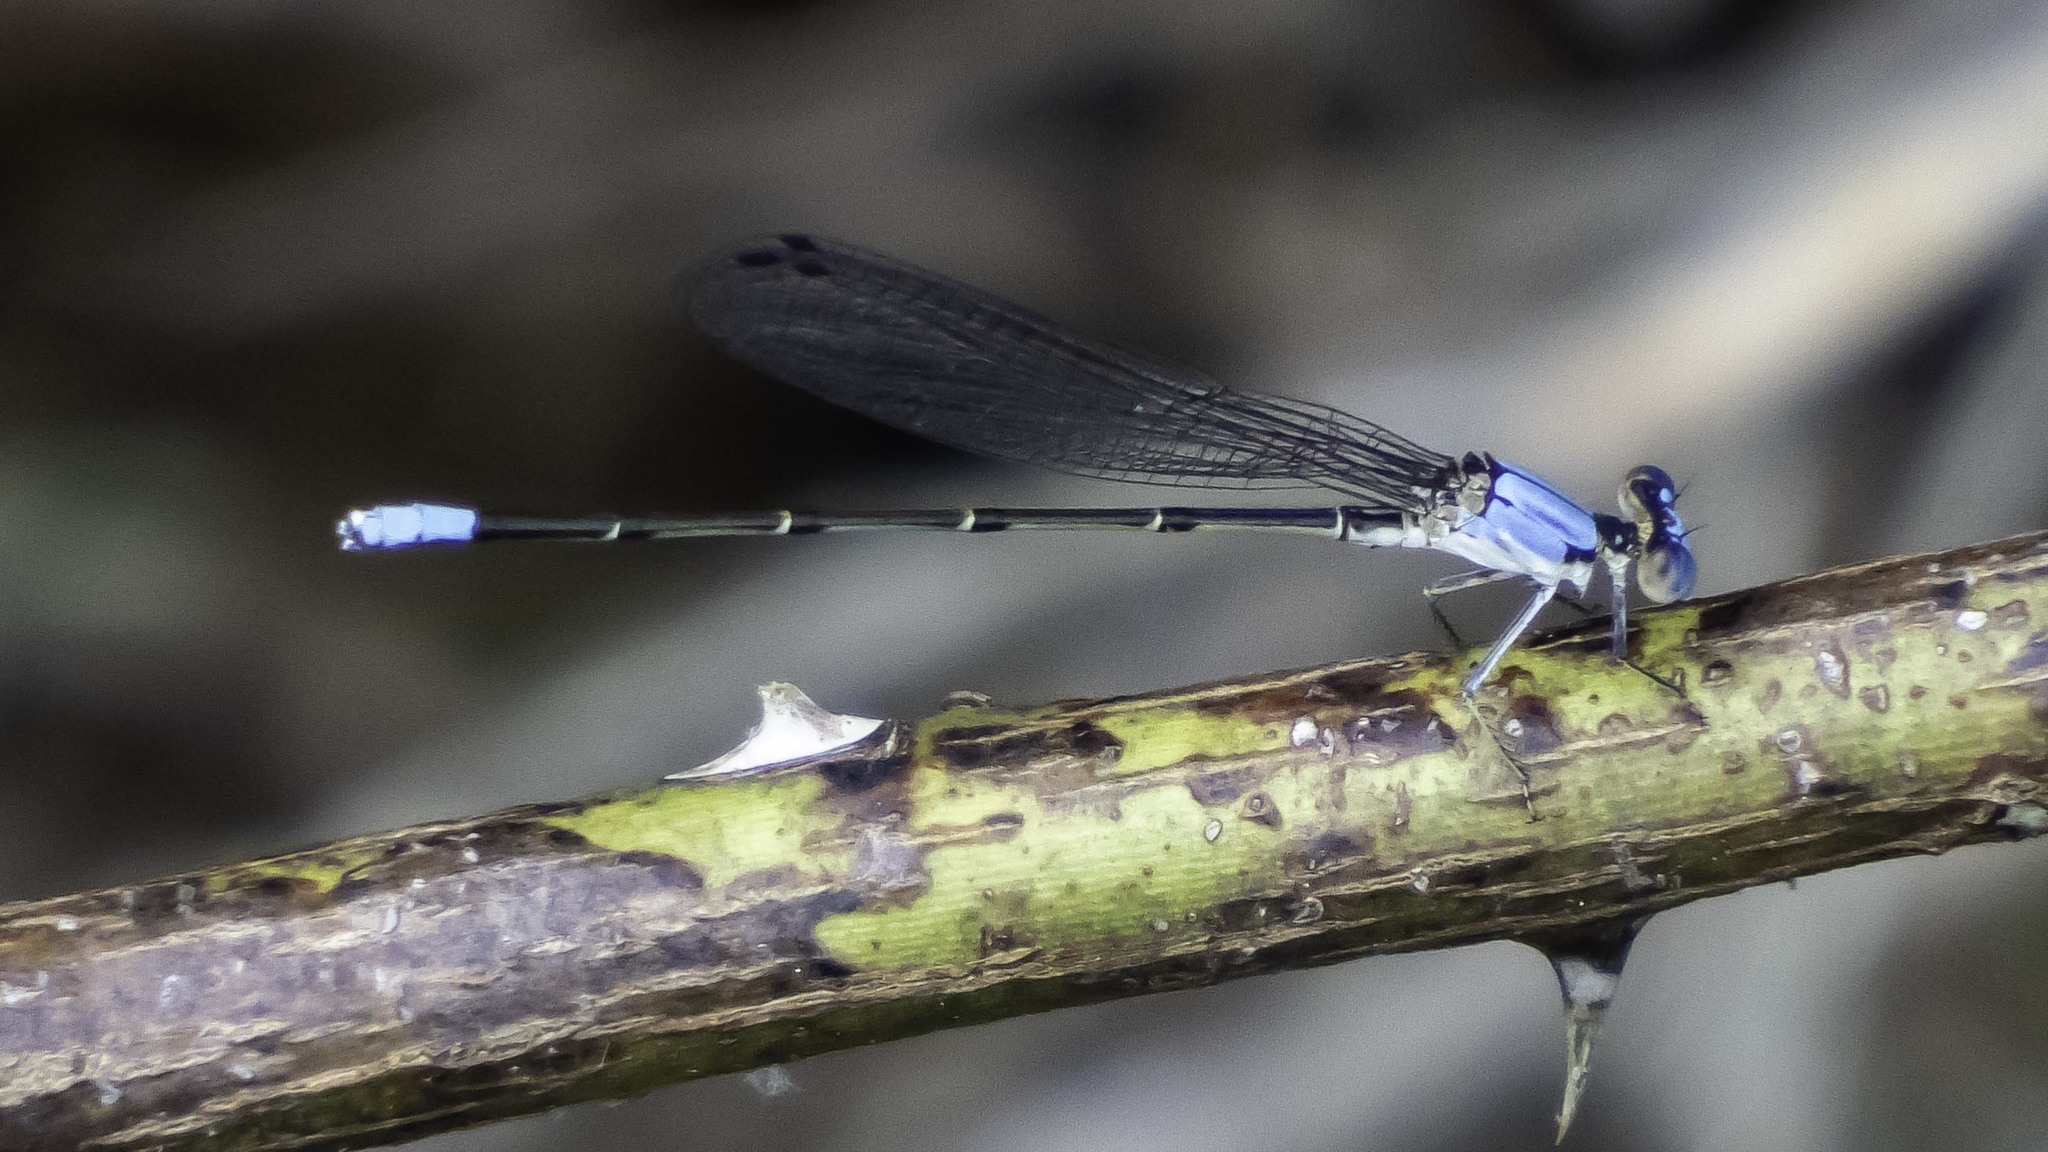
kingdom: Animalia
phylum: Arthropoda
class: Insecta
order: Odonata
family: Coenagrionidae
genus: Argia
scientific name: Argia apicalis
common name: Blue-fronted dancer
